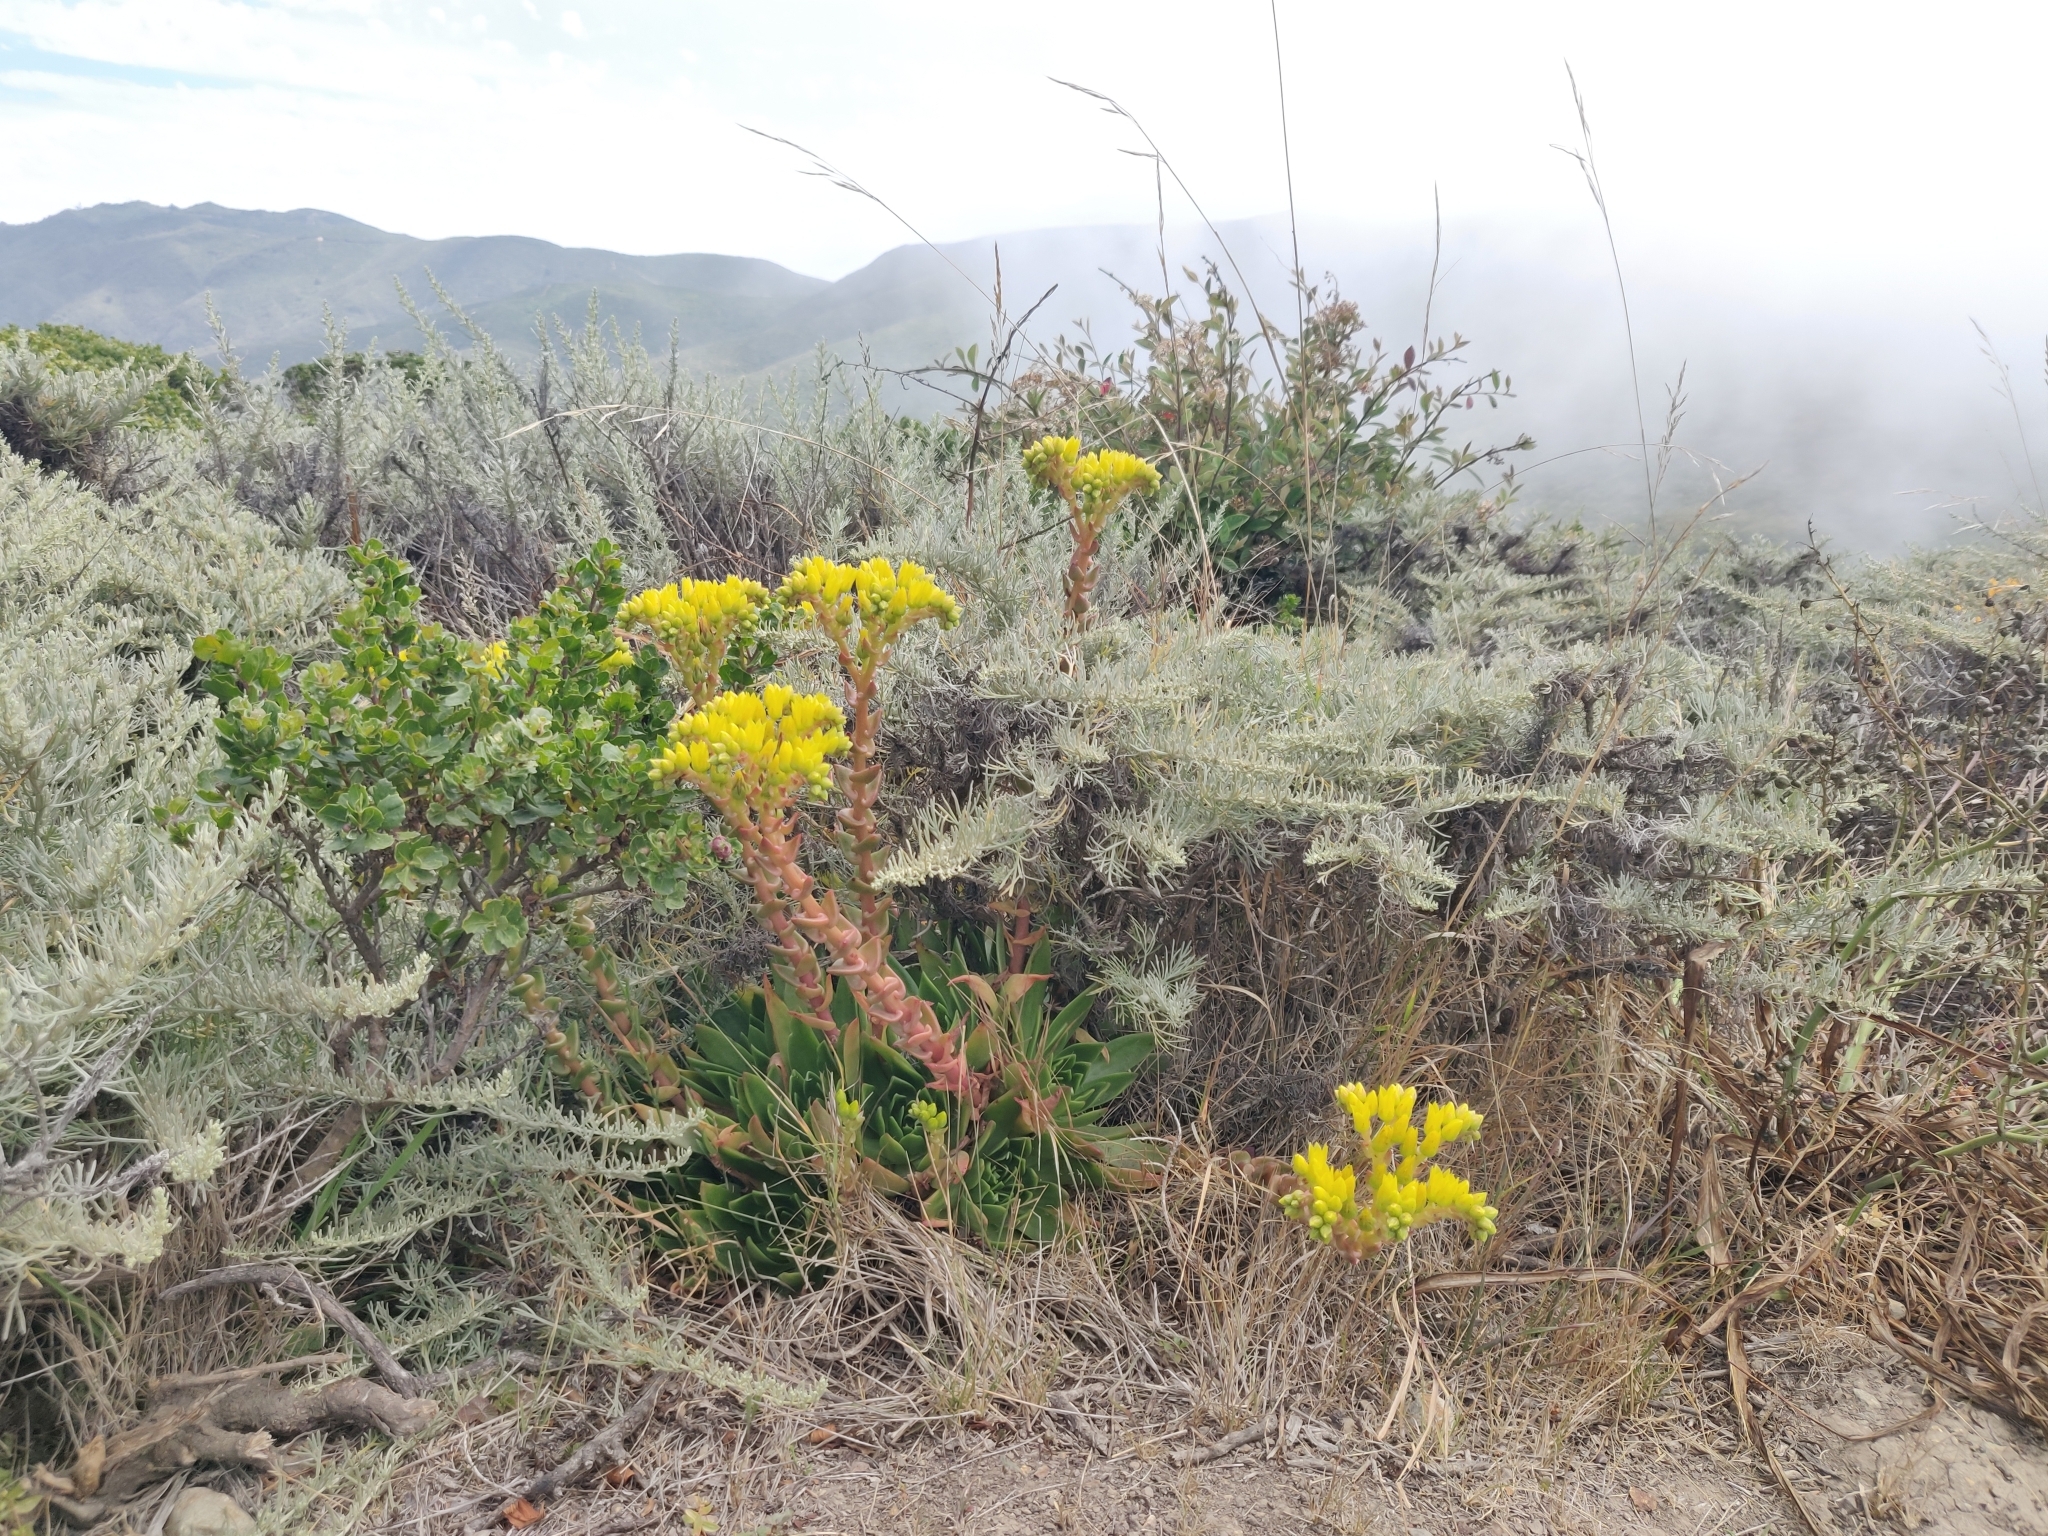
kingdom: Plantae
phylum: Tracheophyta
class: Magnoliopsida
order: Saxifragales
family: Crassulaceae
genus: Dudleya
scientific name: Dudleya caespitosa
